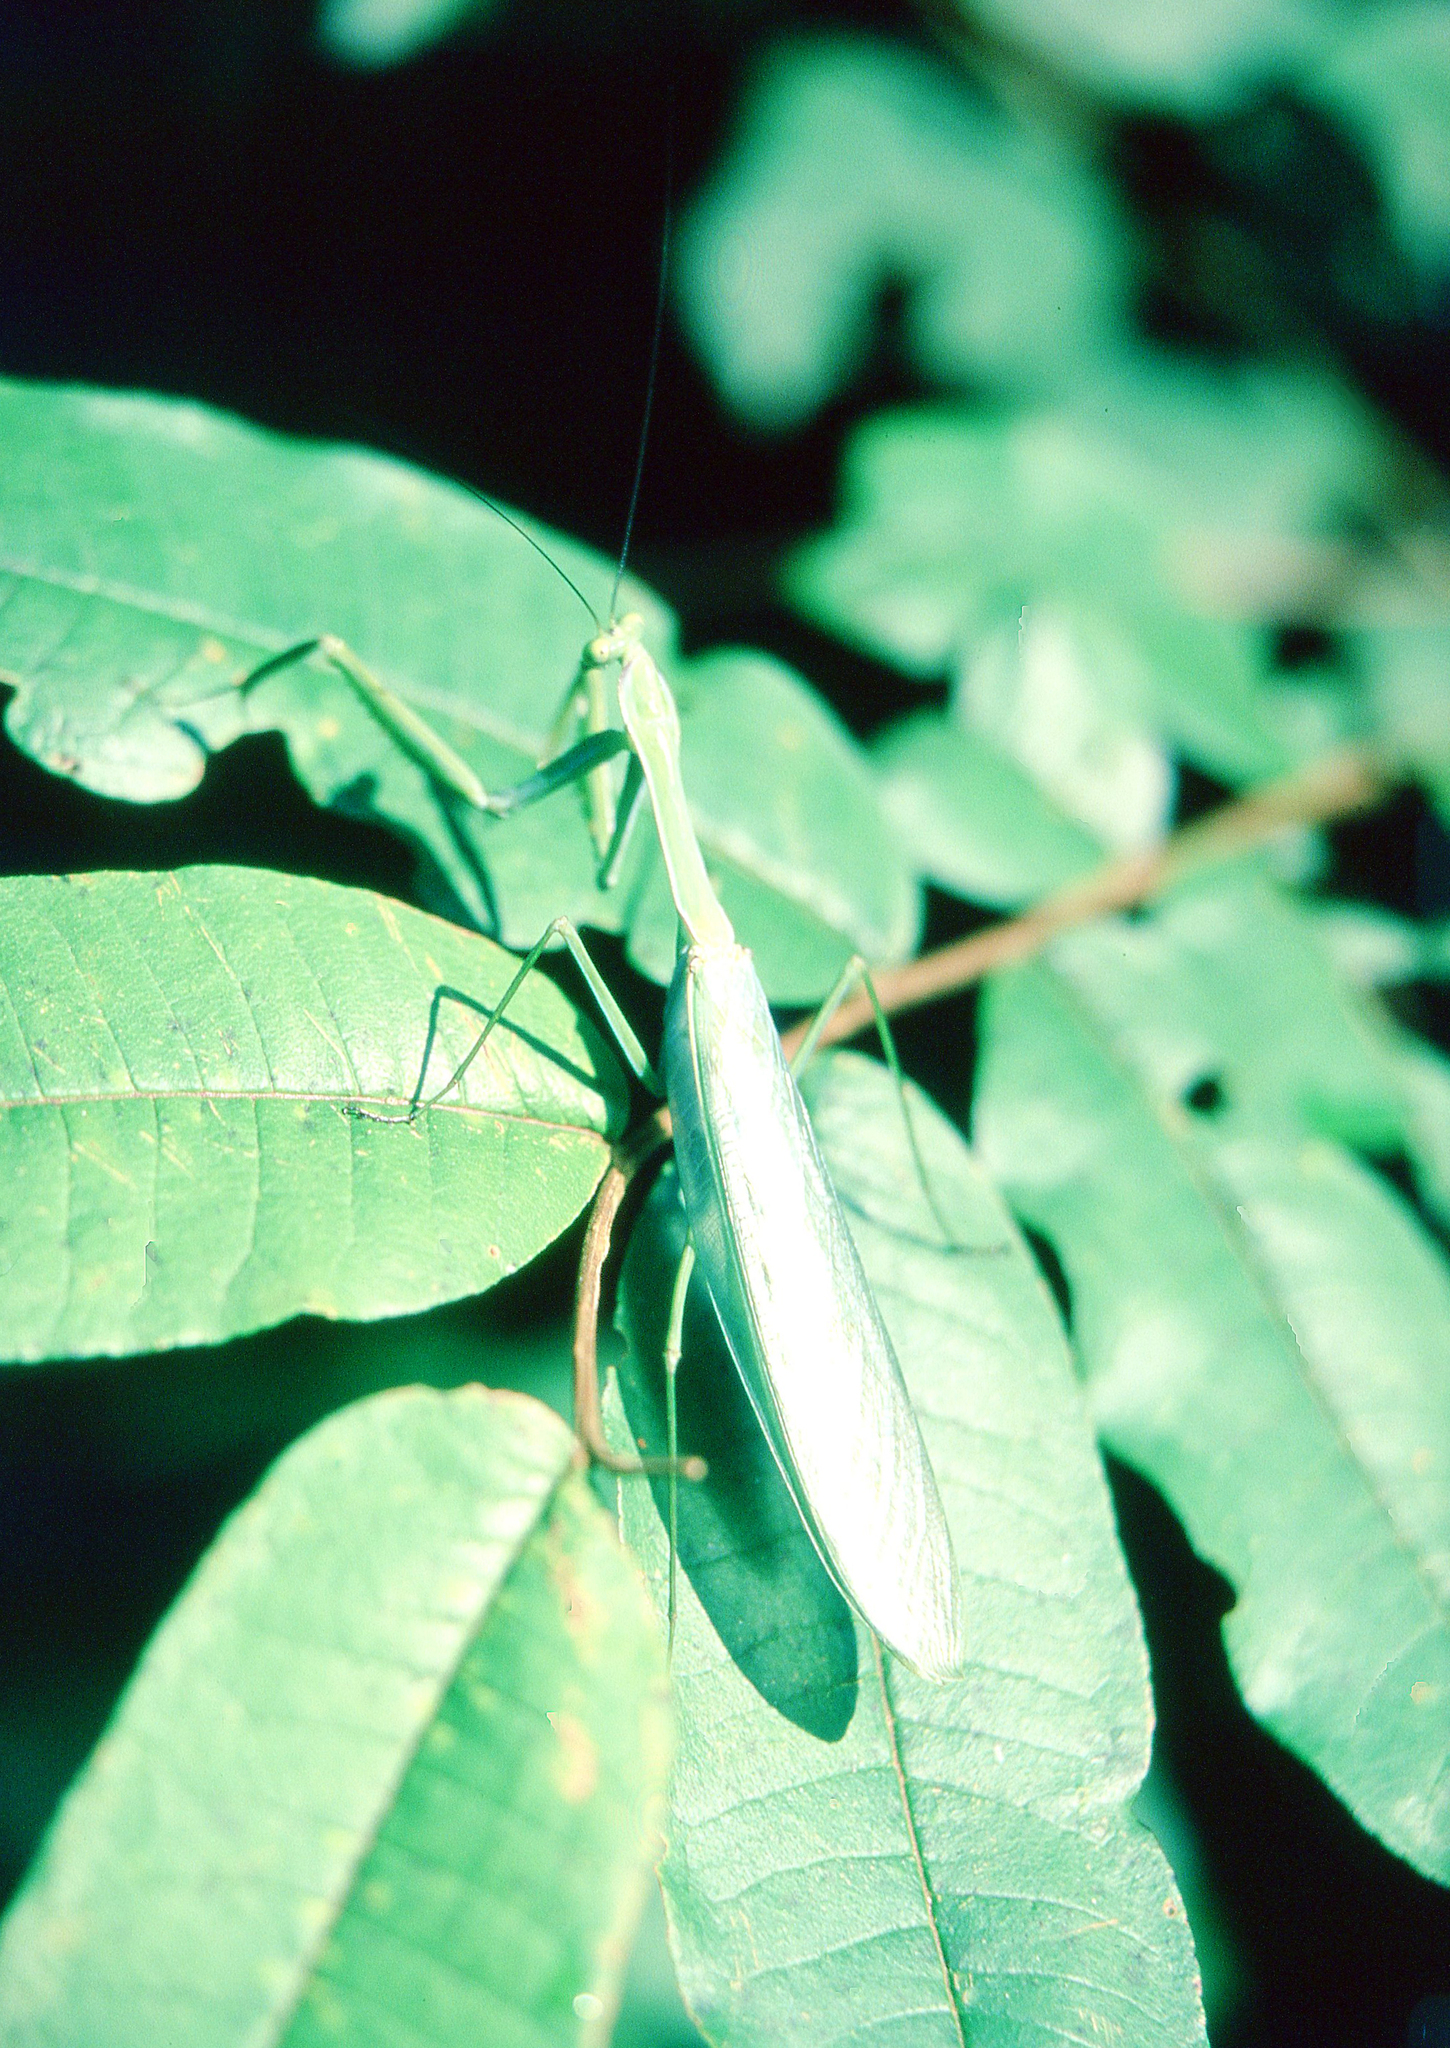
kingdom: Animalia
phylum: Arthropoda
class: Insecta
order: Mantodea
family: Photinaidae
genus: Macromantis
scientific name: Macromantis hyalina
